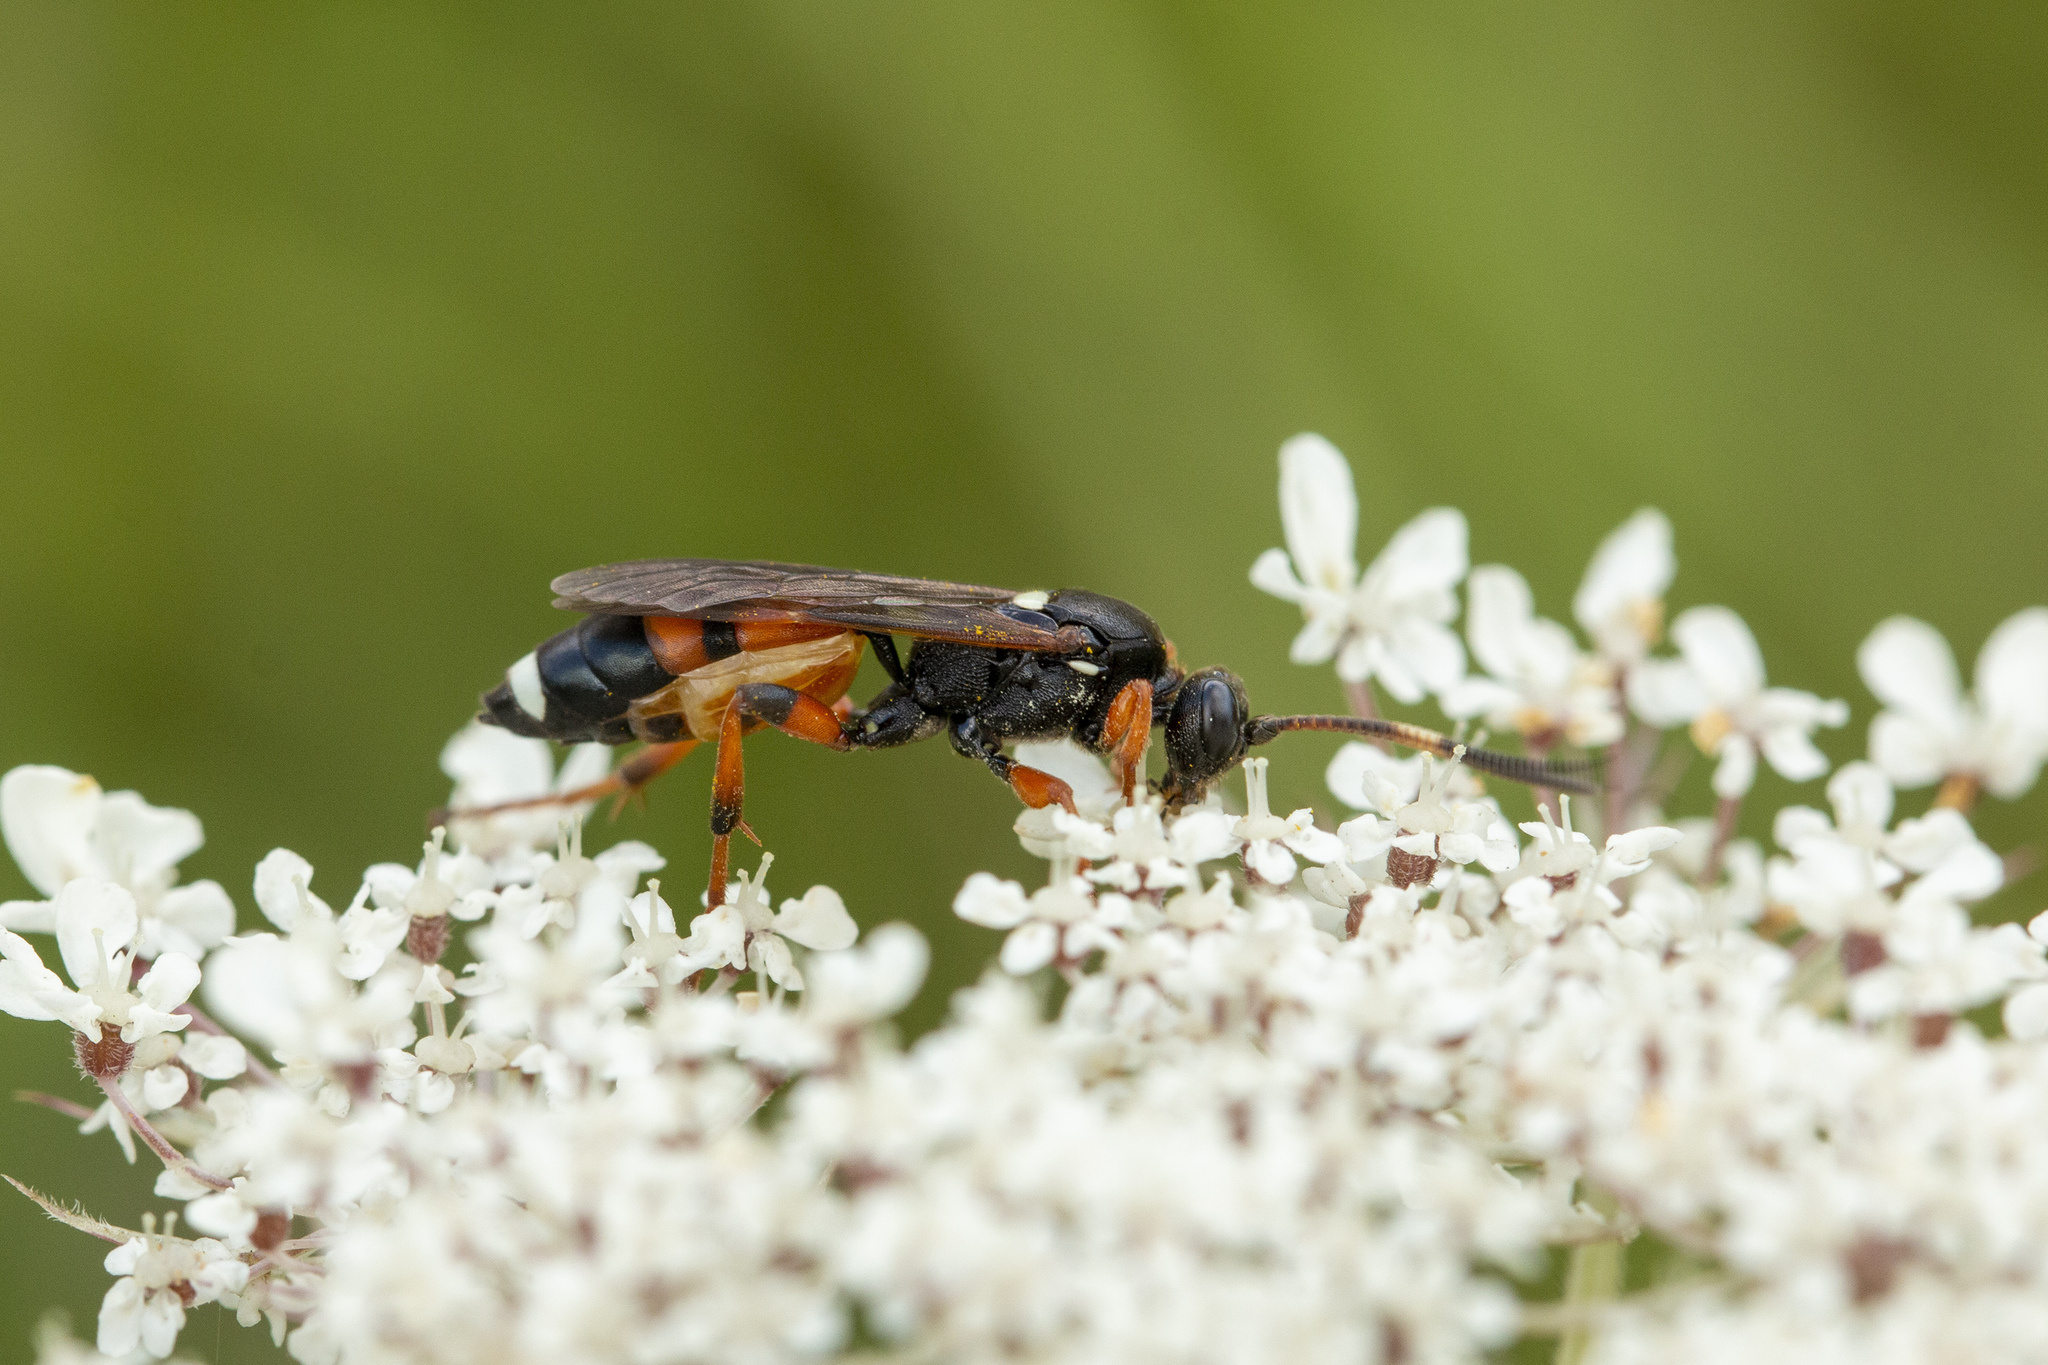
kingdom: Animalia
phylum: Arthropoda
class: Insecta
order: Hymenoptera
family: Ichneumonidae
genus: Ichneumon
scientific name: Ichneumon sarcitorius
